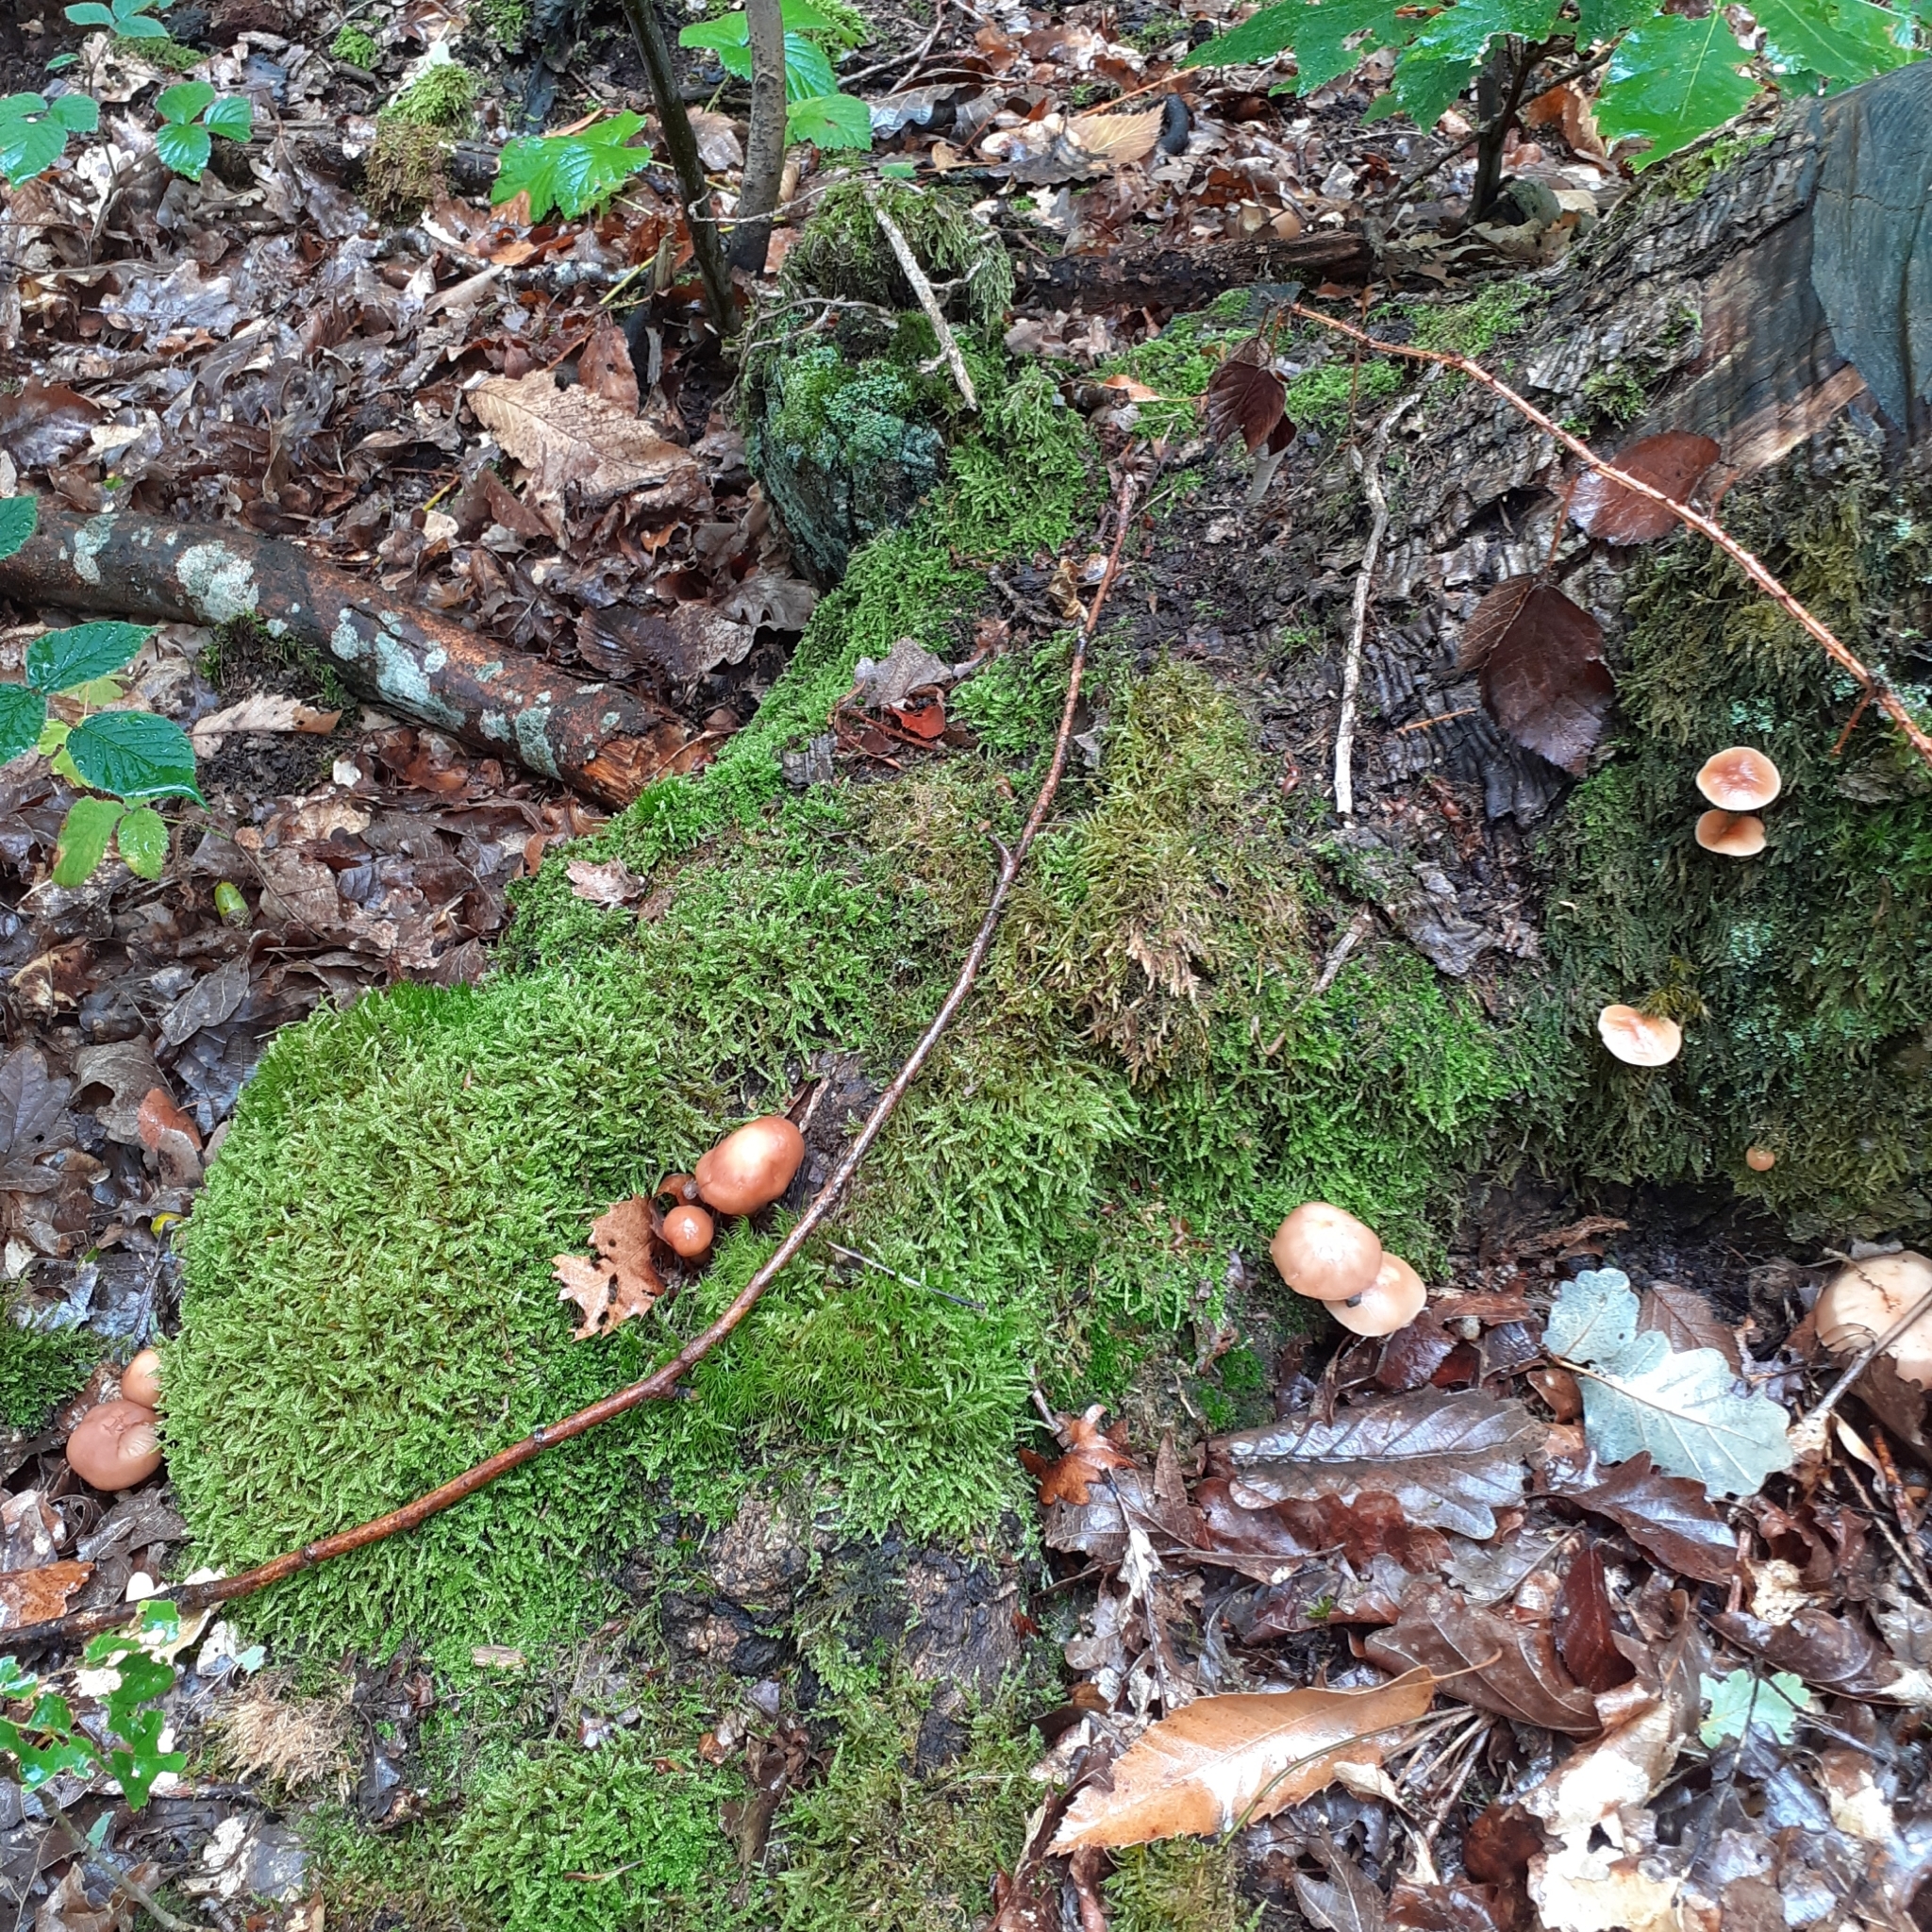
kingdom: Fungi
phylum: Basidiomycota
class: Agaricomycetes
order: Agaricales
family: Omphalotaceae
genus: Gymnopus
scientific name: Gymnopus fusipes
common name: Spindle shank
